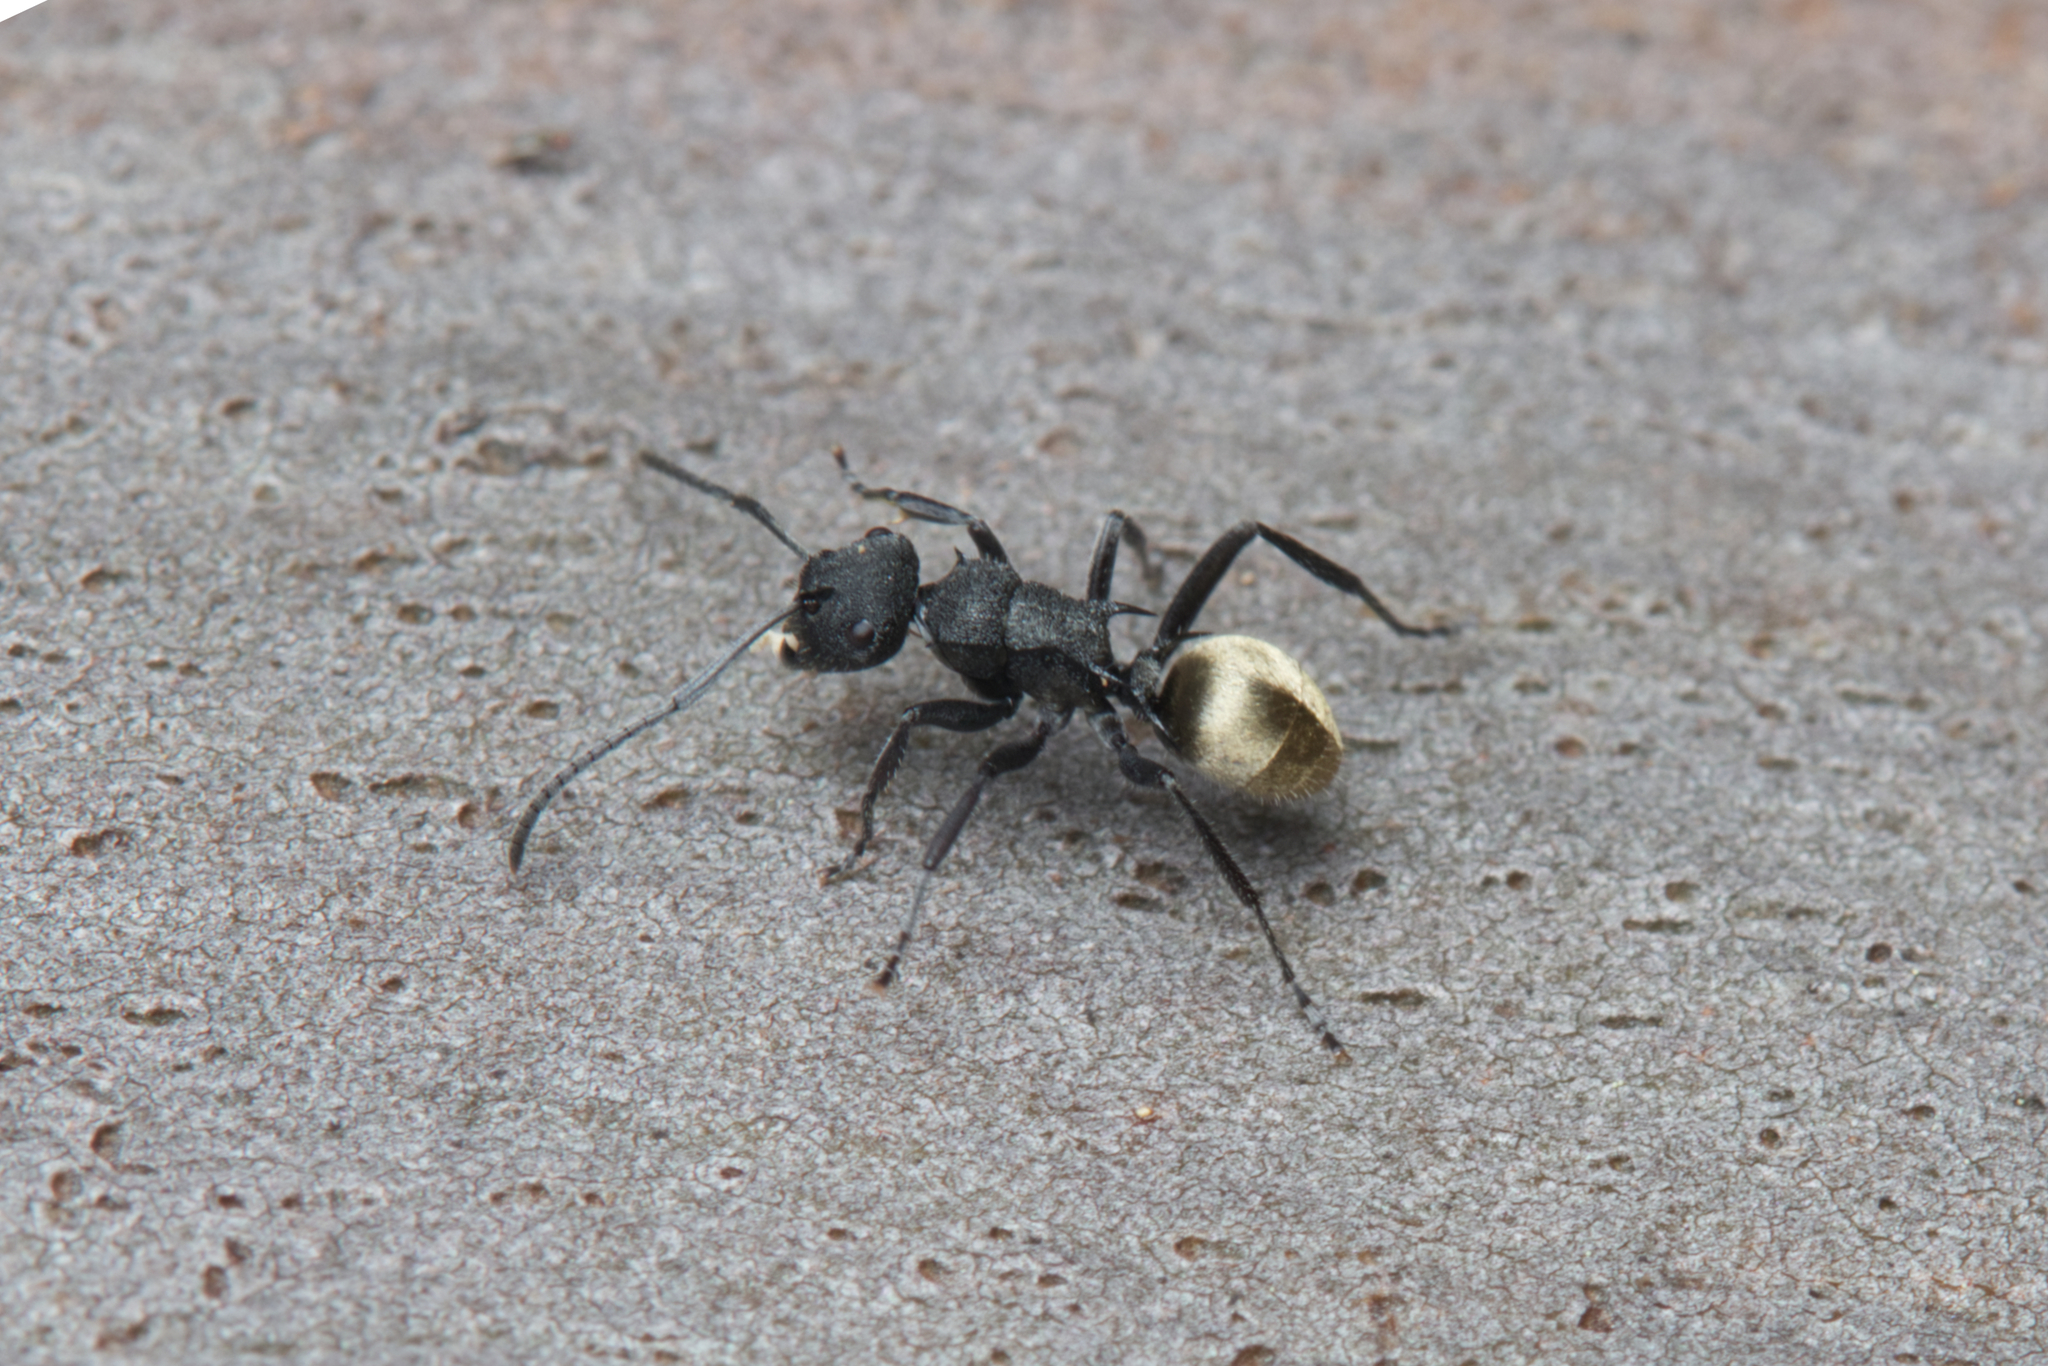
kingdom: Animalia
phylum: Arthropoda
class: Insecta
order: Hymenoptera
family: Formicidae
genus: Polyrhachis
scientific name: Polyrhachis erato
